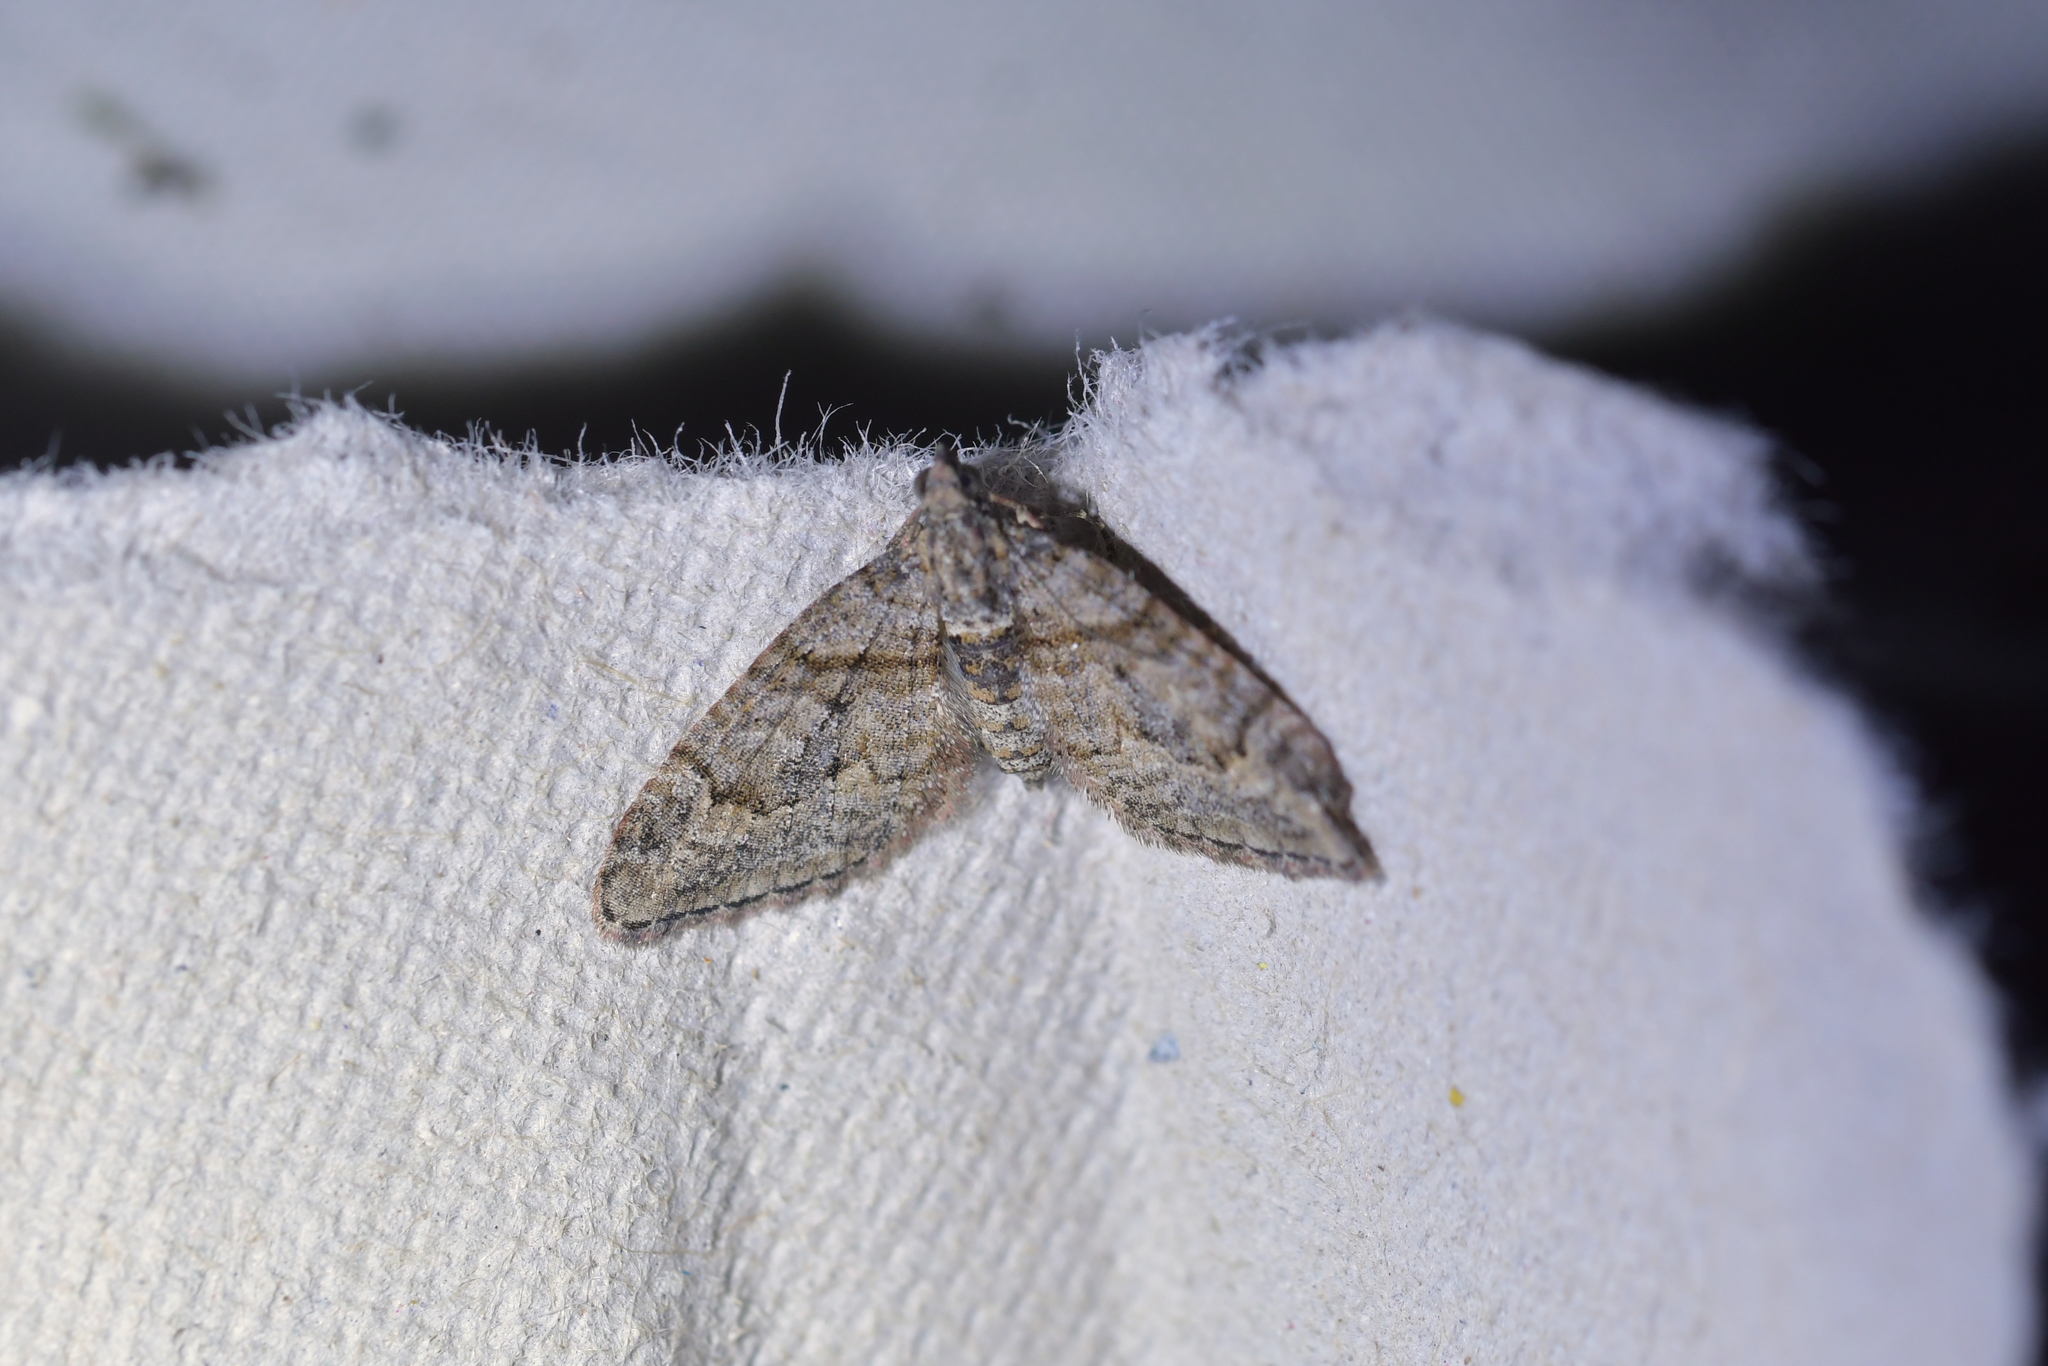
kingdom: Animalia
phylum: Arthropoda
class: Insecta
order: Lepidoptera
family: Geometridae
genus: Phrissogonus
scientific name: Phrissogonus laticostata
